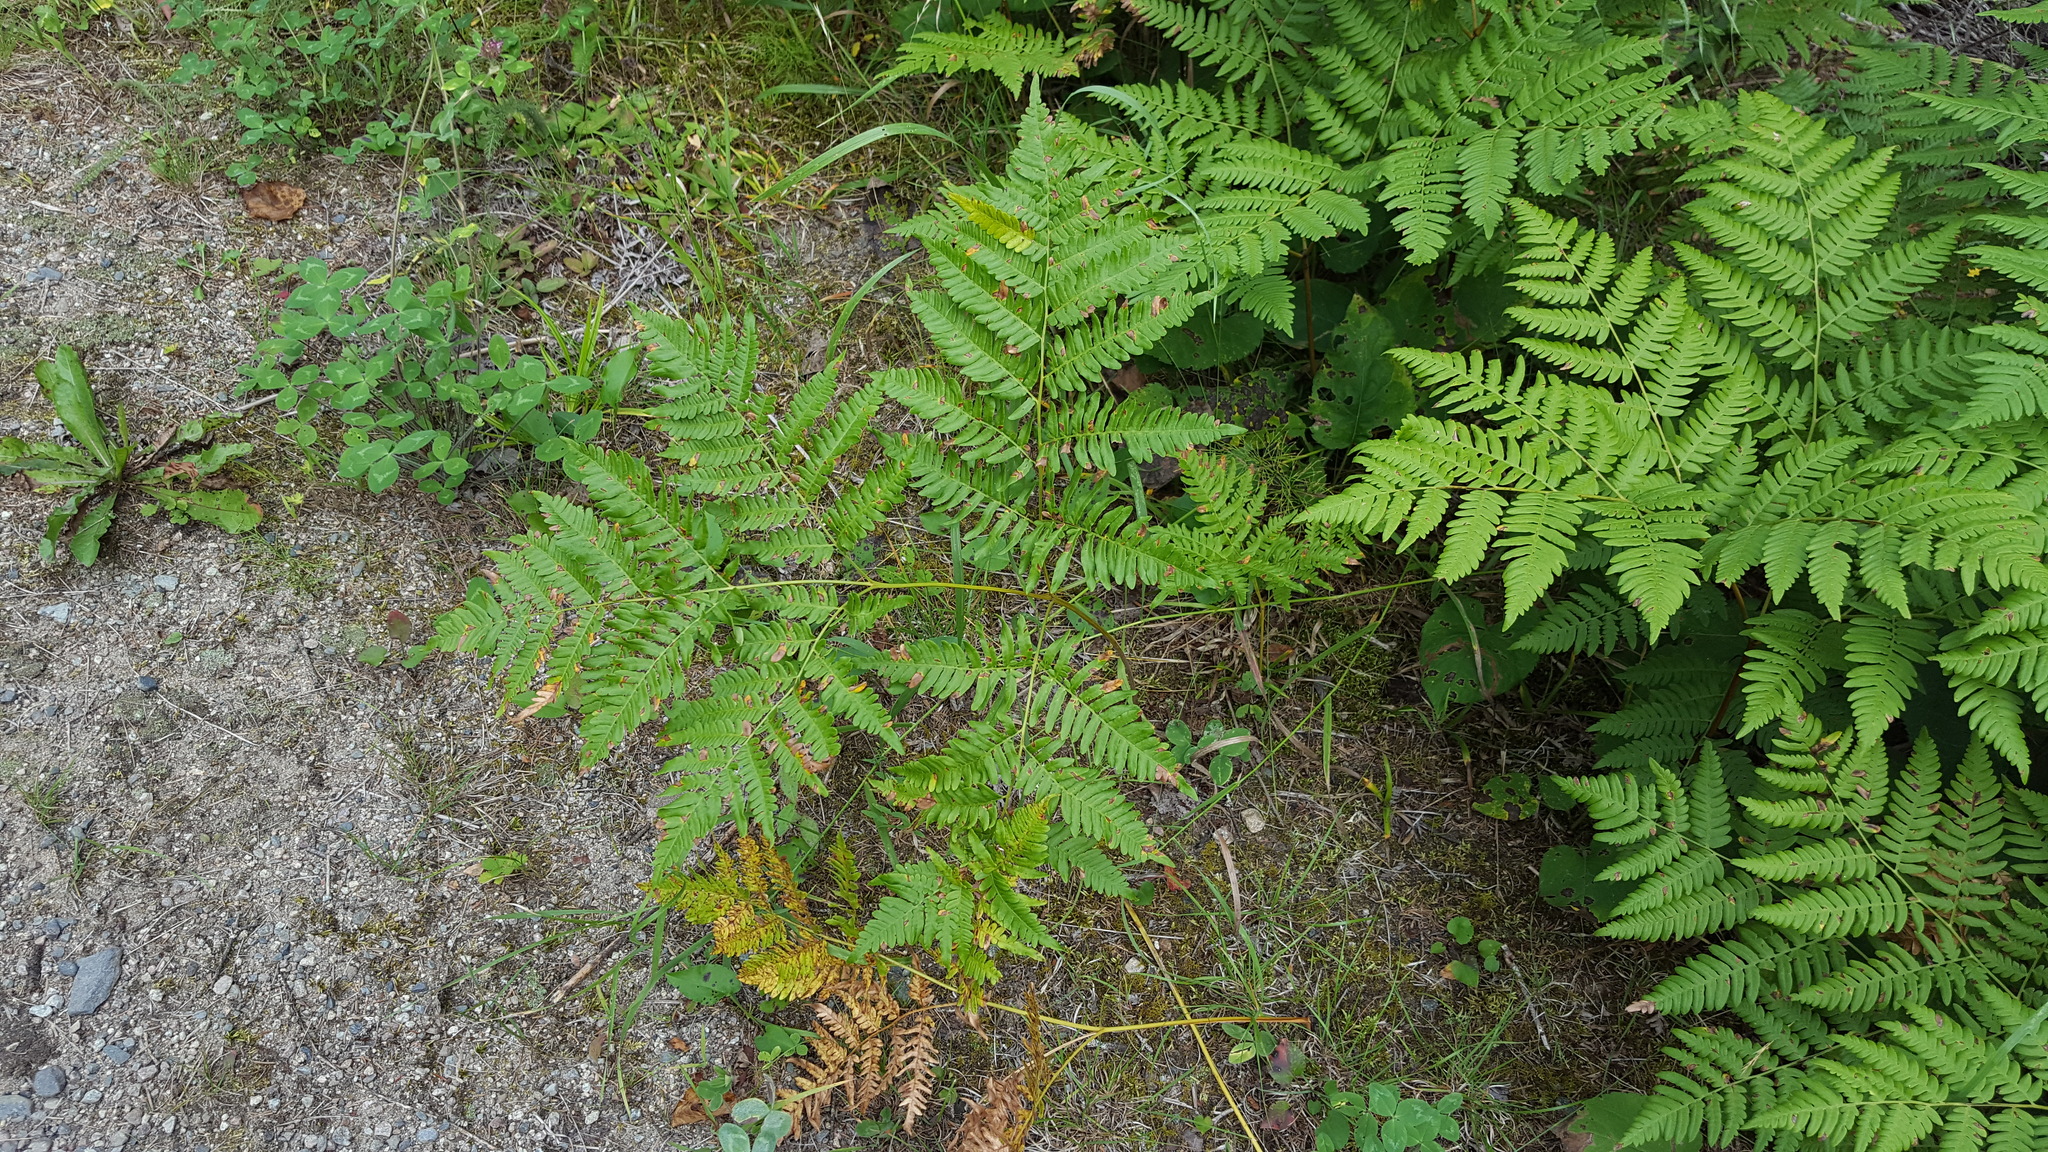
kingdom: Plantae
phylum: Tracheophyta
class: Polypodiopsida
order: Polypodiales
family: Dennstaedtiaceae
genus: Pteridium
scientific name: Pteridium aquilinum
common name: Bracken
